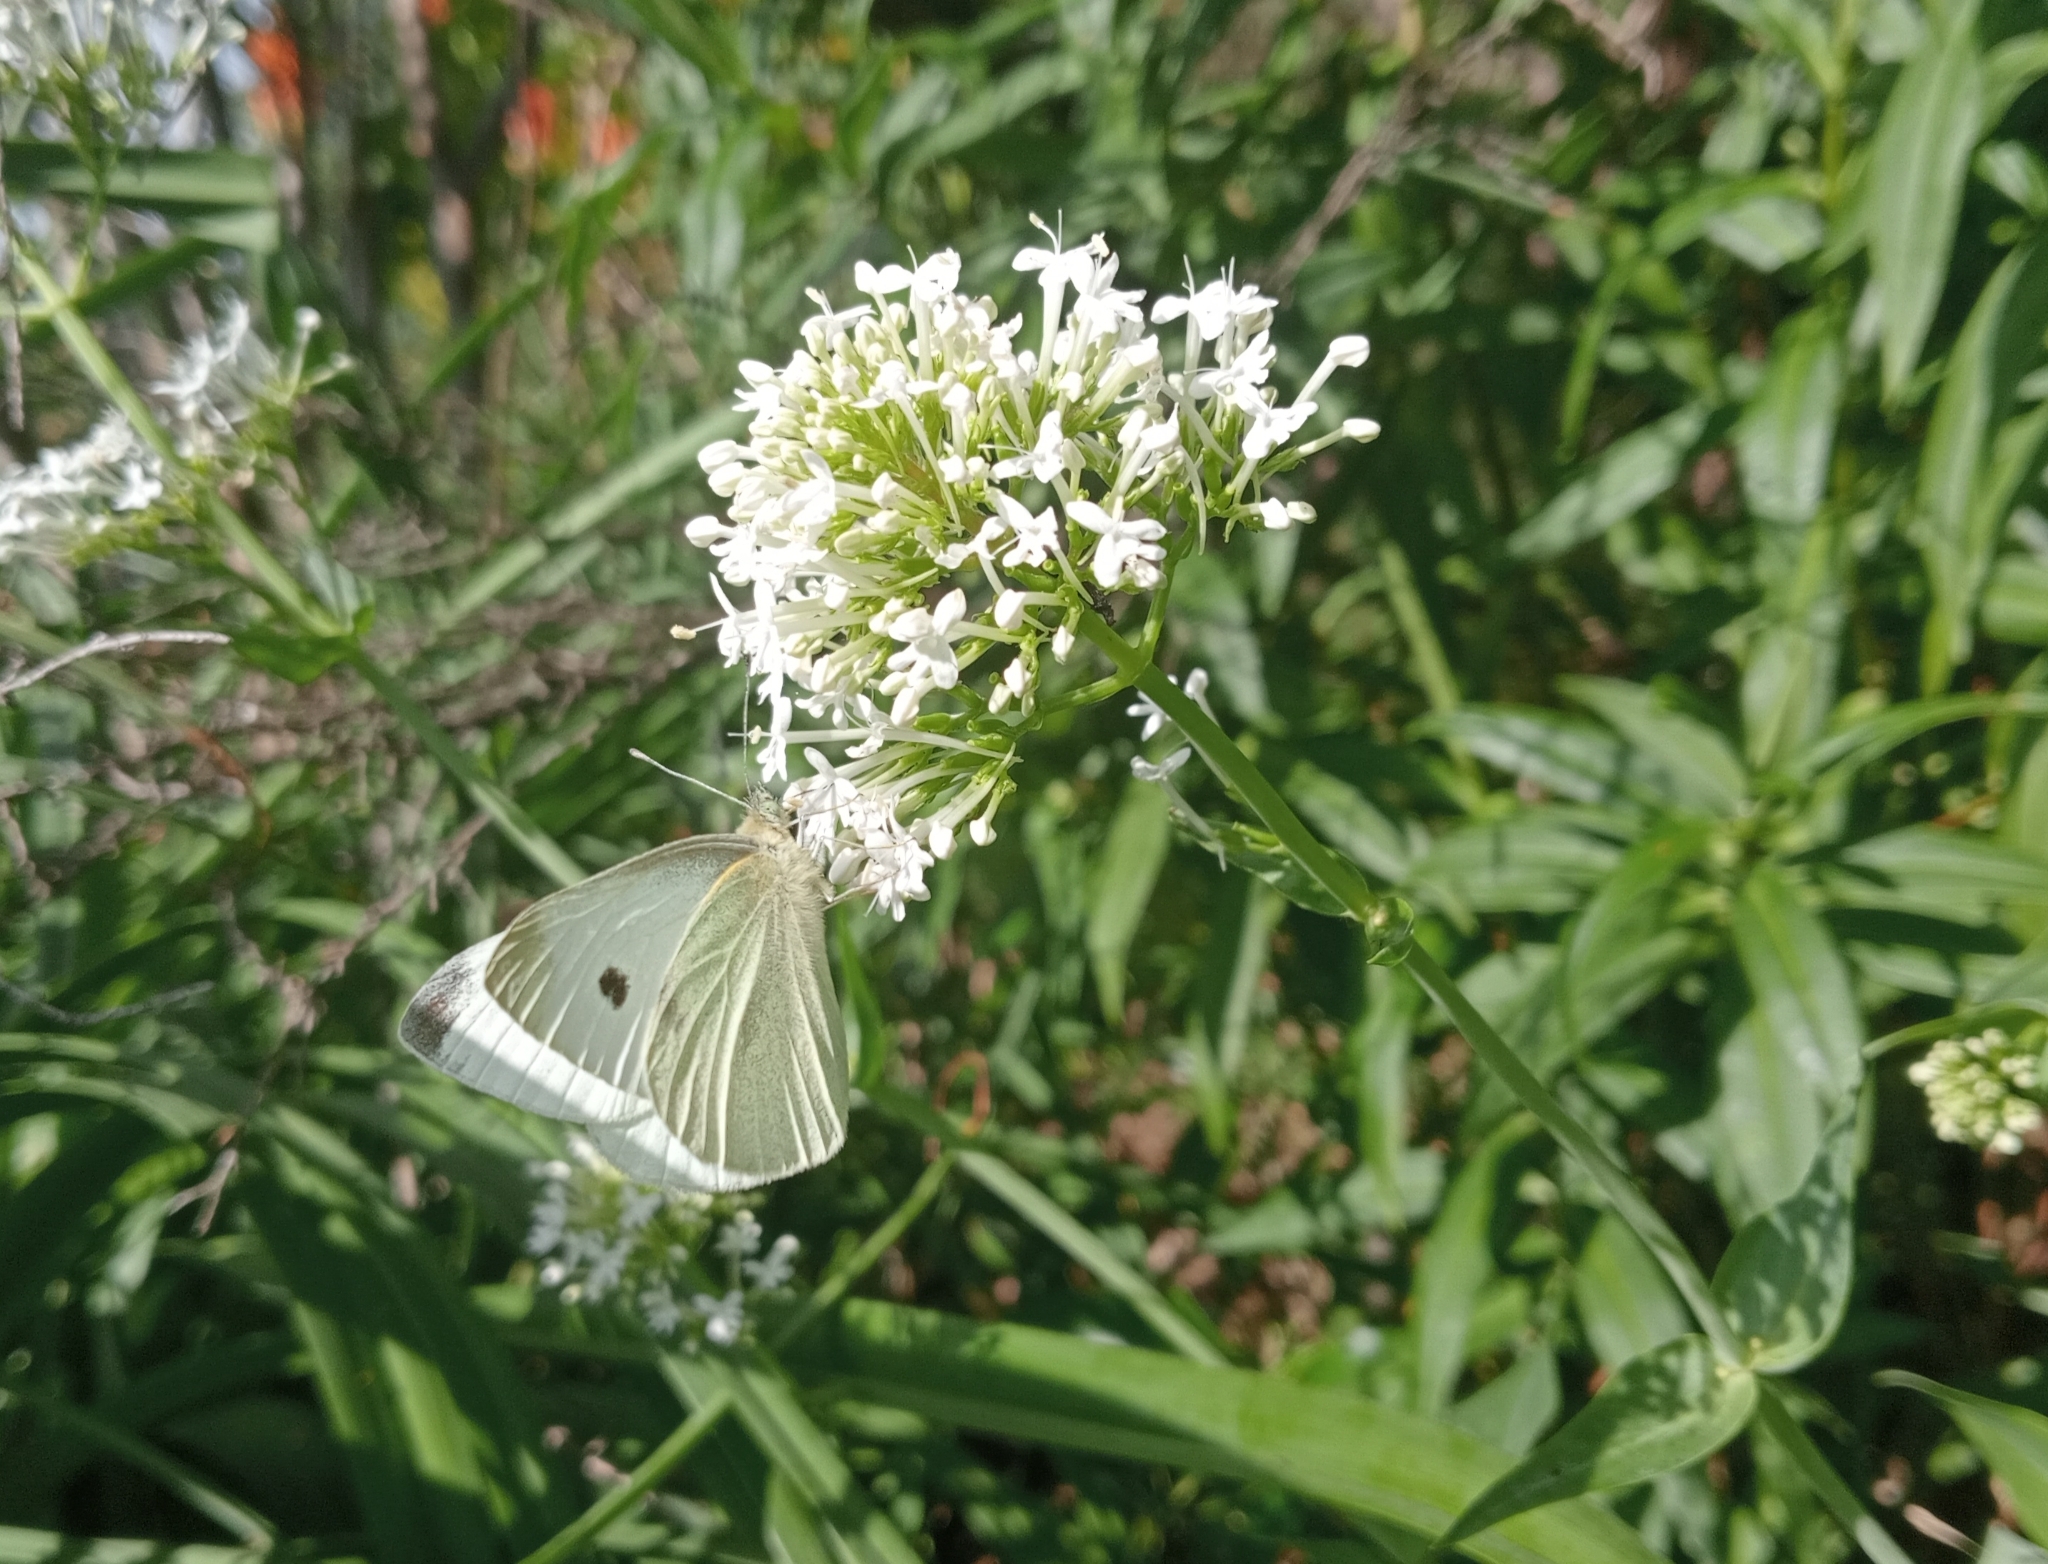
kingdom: Animalia
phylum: Arthropoda
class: Insecta
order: Lepidoptera
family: Pieridae
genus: Pieris
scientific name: Pieris rapae
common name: Small white
